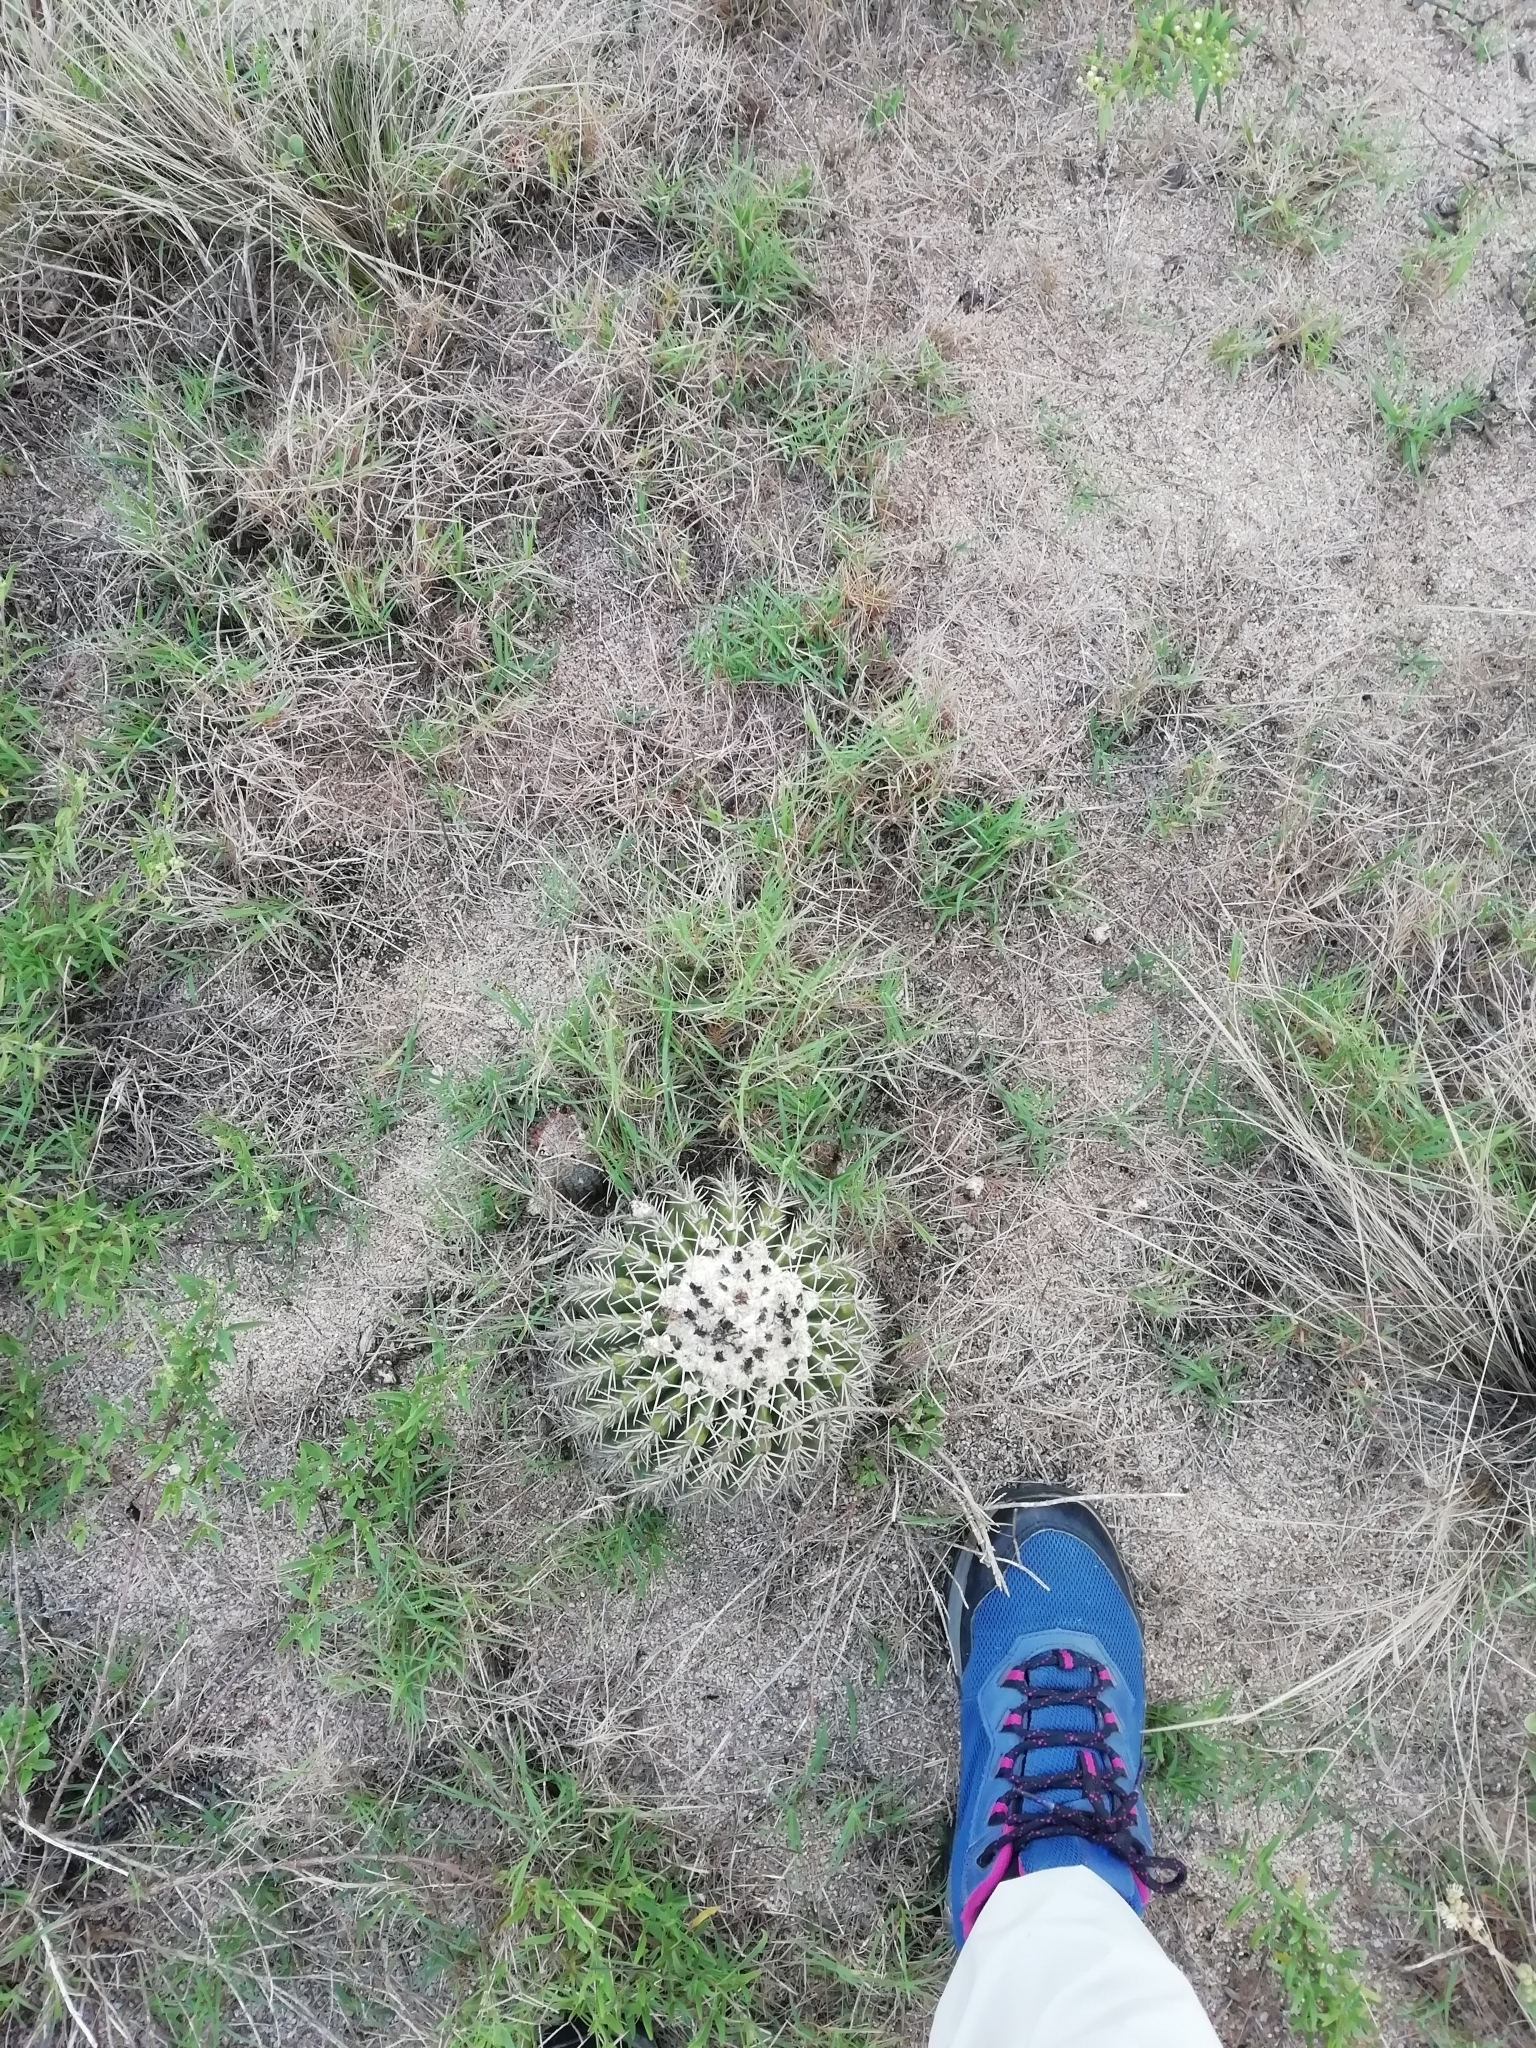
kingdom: Plantae
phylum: Tracheophyta
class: Magnoliopsida
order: Caryophyllales
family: Cactaceae
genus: Parodia
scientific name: Parodia erinacea
